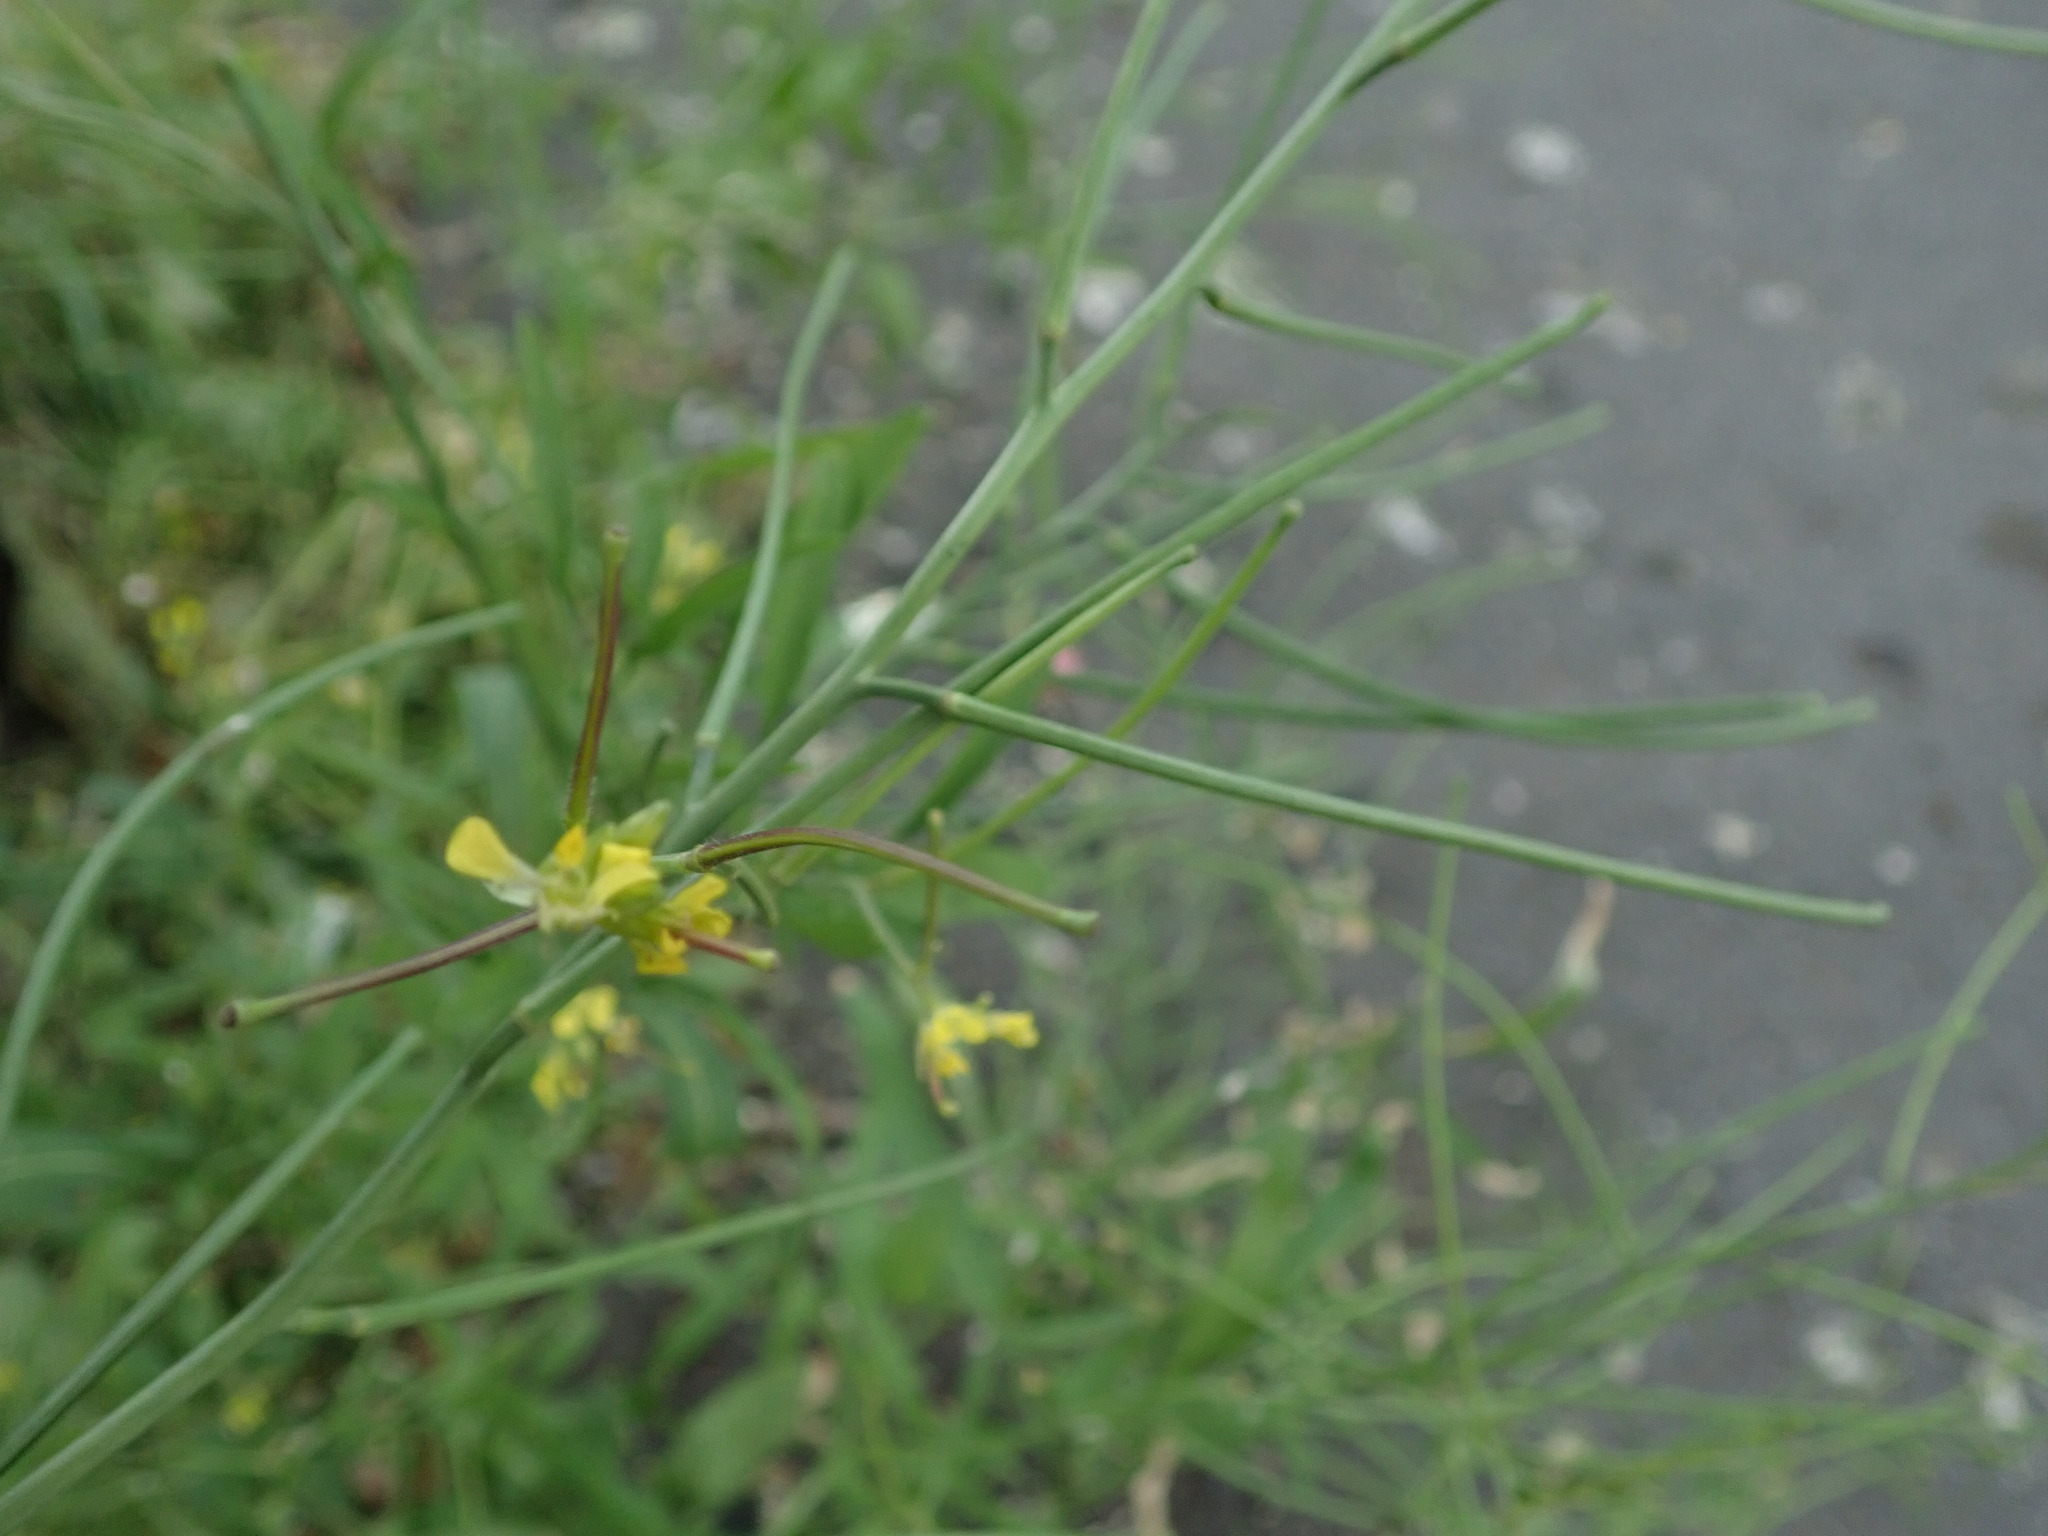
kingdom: Plantae
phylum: Tracheophyta
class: Magnoliopsida
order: Brassicales
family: Brassicaceae
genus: Sisymbrium
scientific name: Sisymbrium orientale
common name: Eastern rocket
